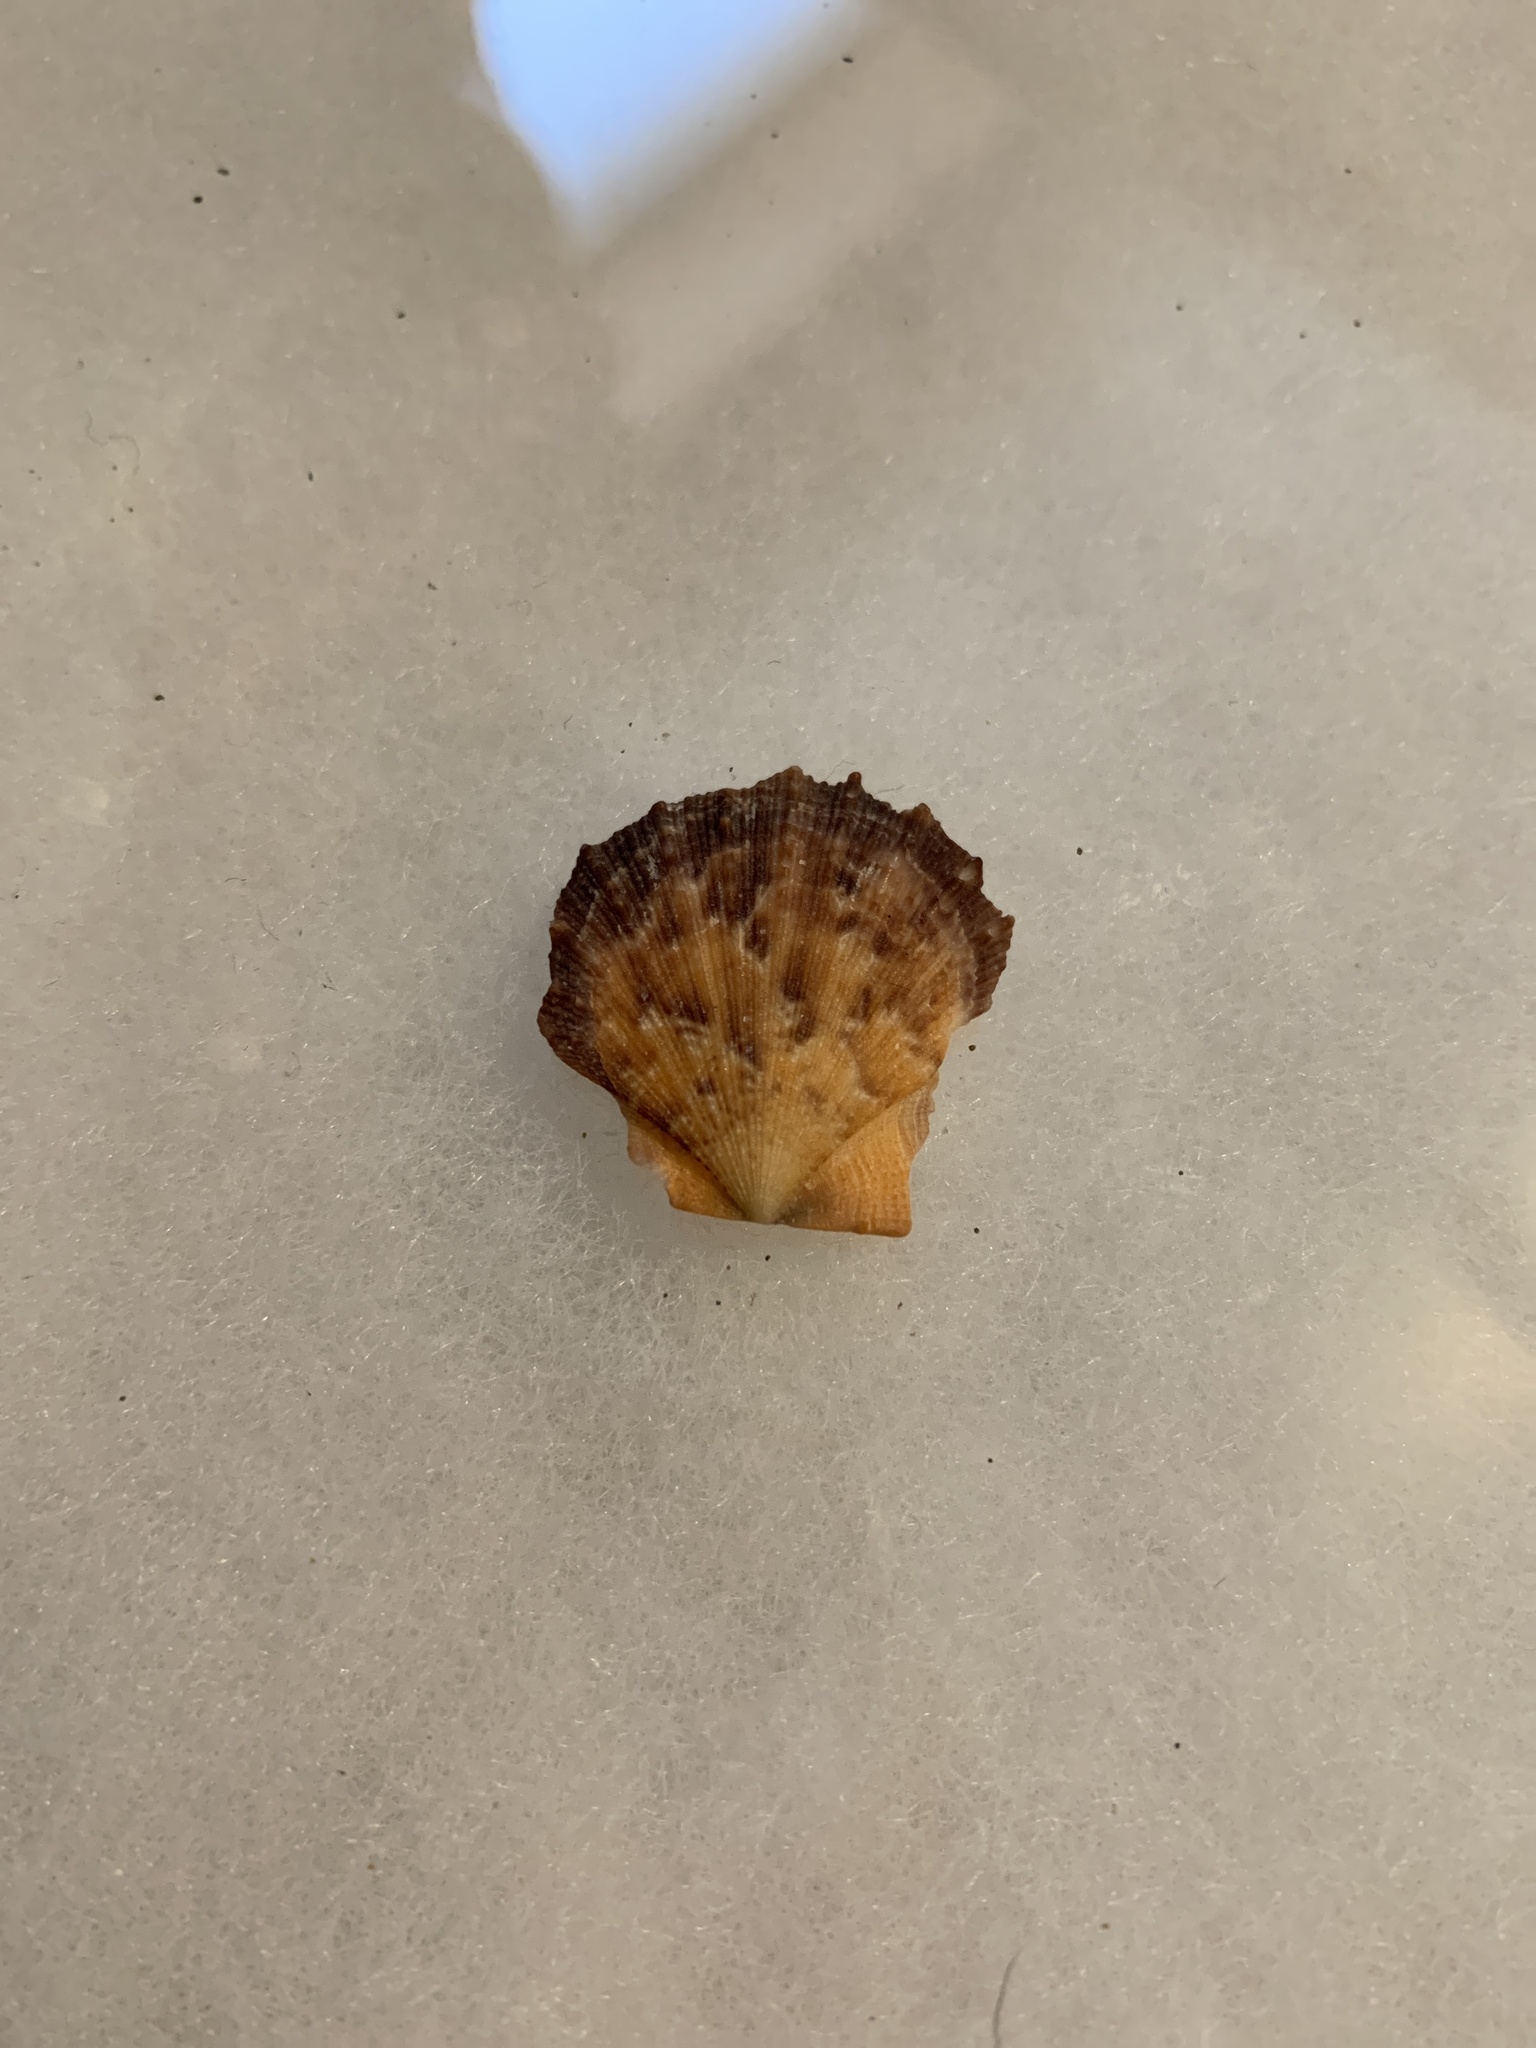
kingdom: Animalia
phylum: Mollusca
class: Bivalvia
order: Pectinida
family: Pectinidae
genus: Crassadoma
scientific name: Crassadoma gigantea
